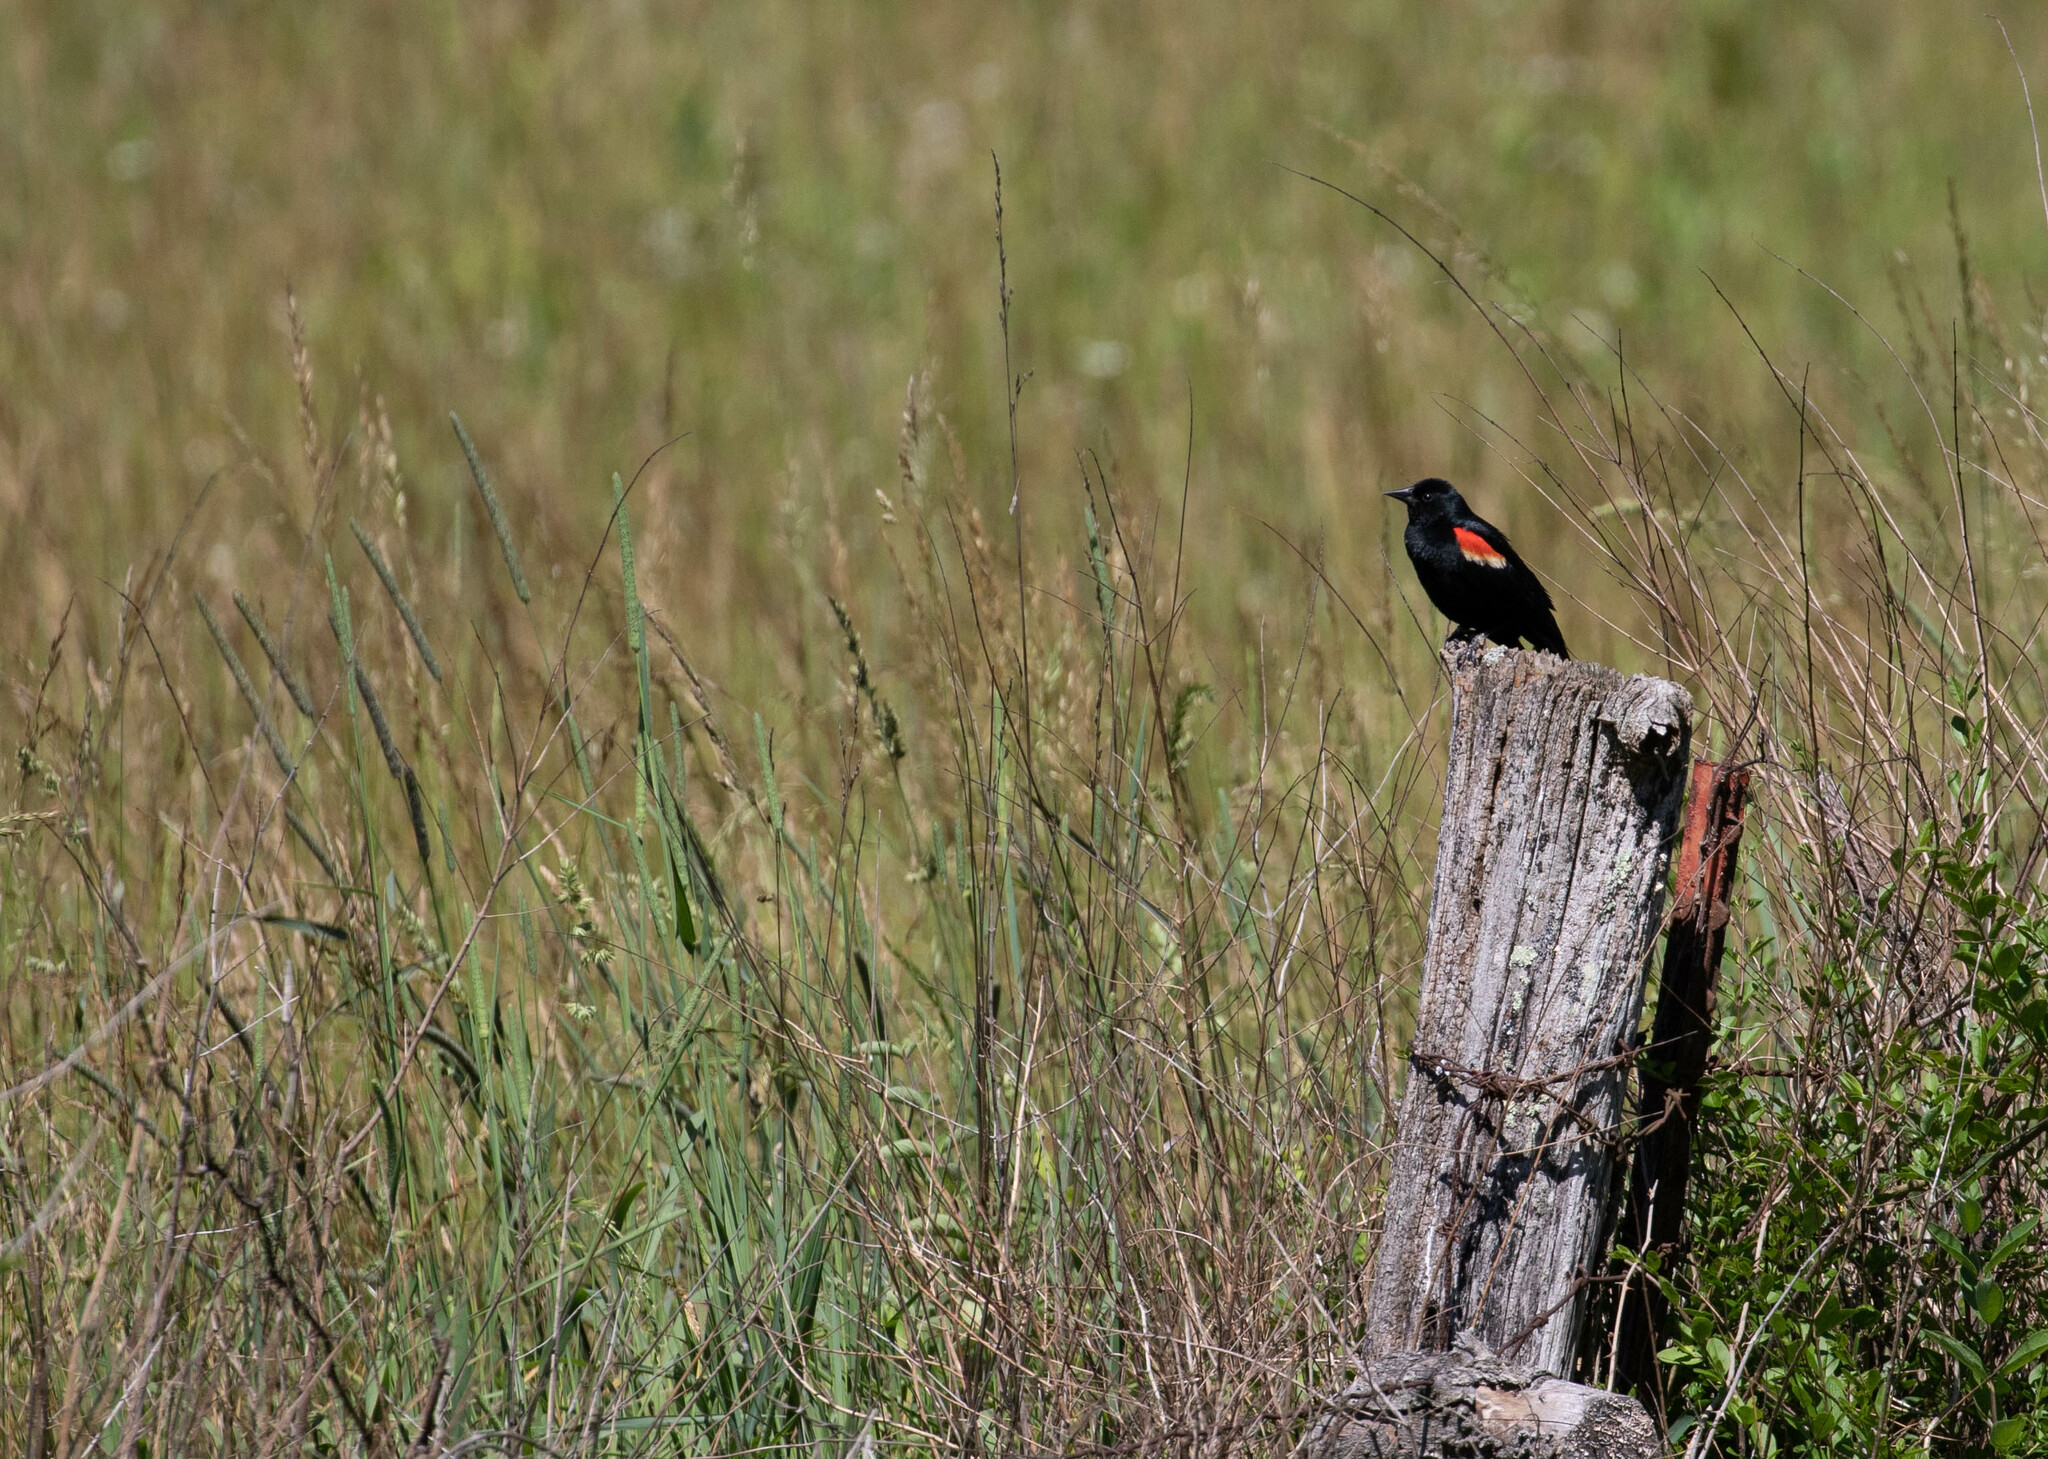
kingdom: Animalia
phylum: Chordata
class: Aves
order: Passeriformes
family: Icteridae
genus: Agelaius
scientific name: Agelaius phoeniceus
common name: Red-winged blackbird
